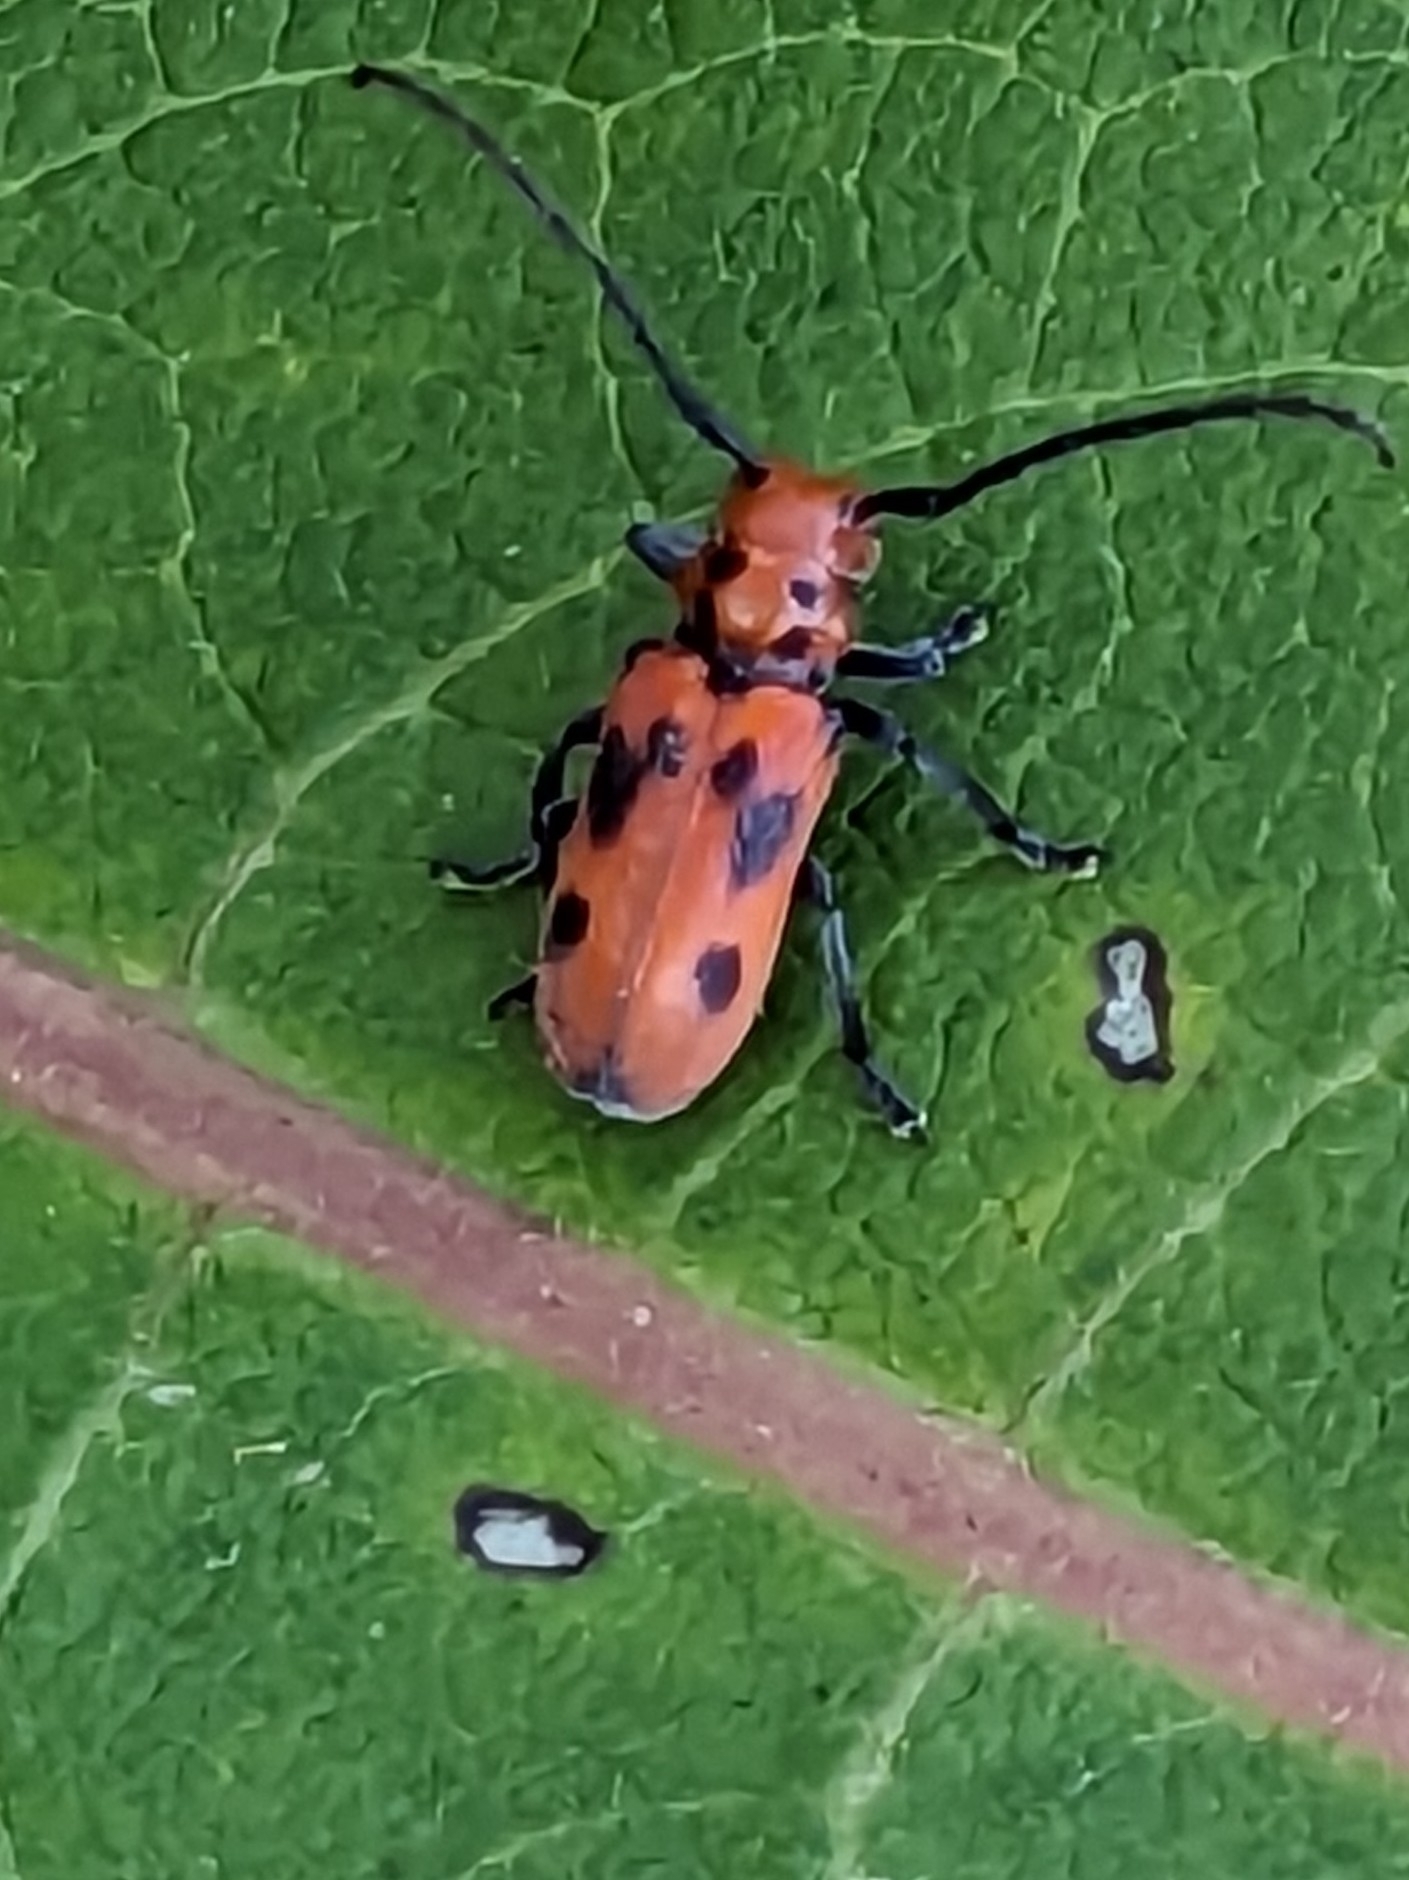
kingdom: Animalia
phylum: Arthropoda
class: Insecta
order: Coleoptera
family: Cerambycidae
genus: Tetraopes
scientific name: Tetraopes tetrophthalmus
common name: Red milkweed beetle
